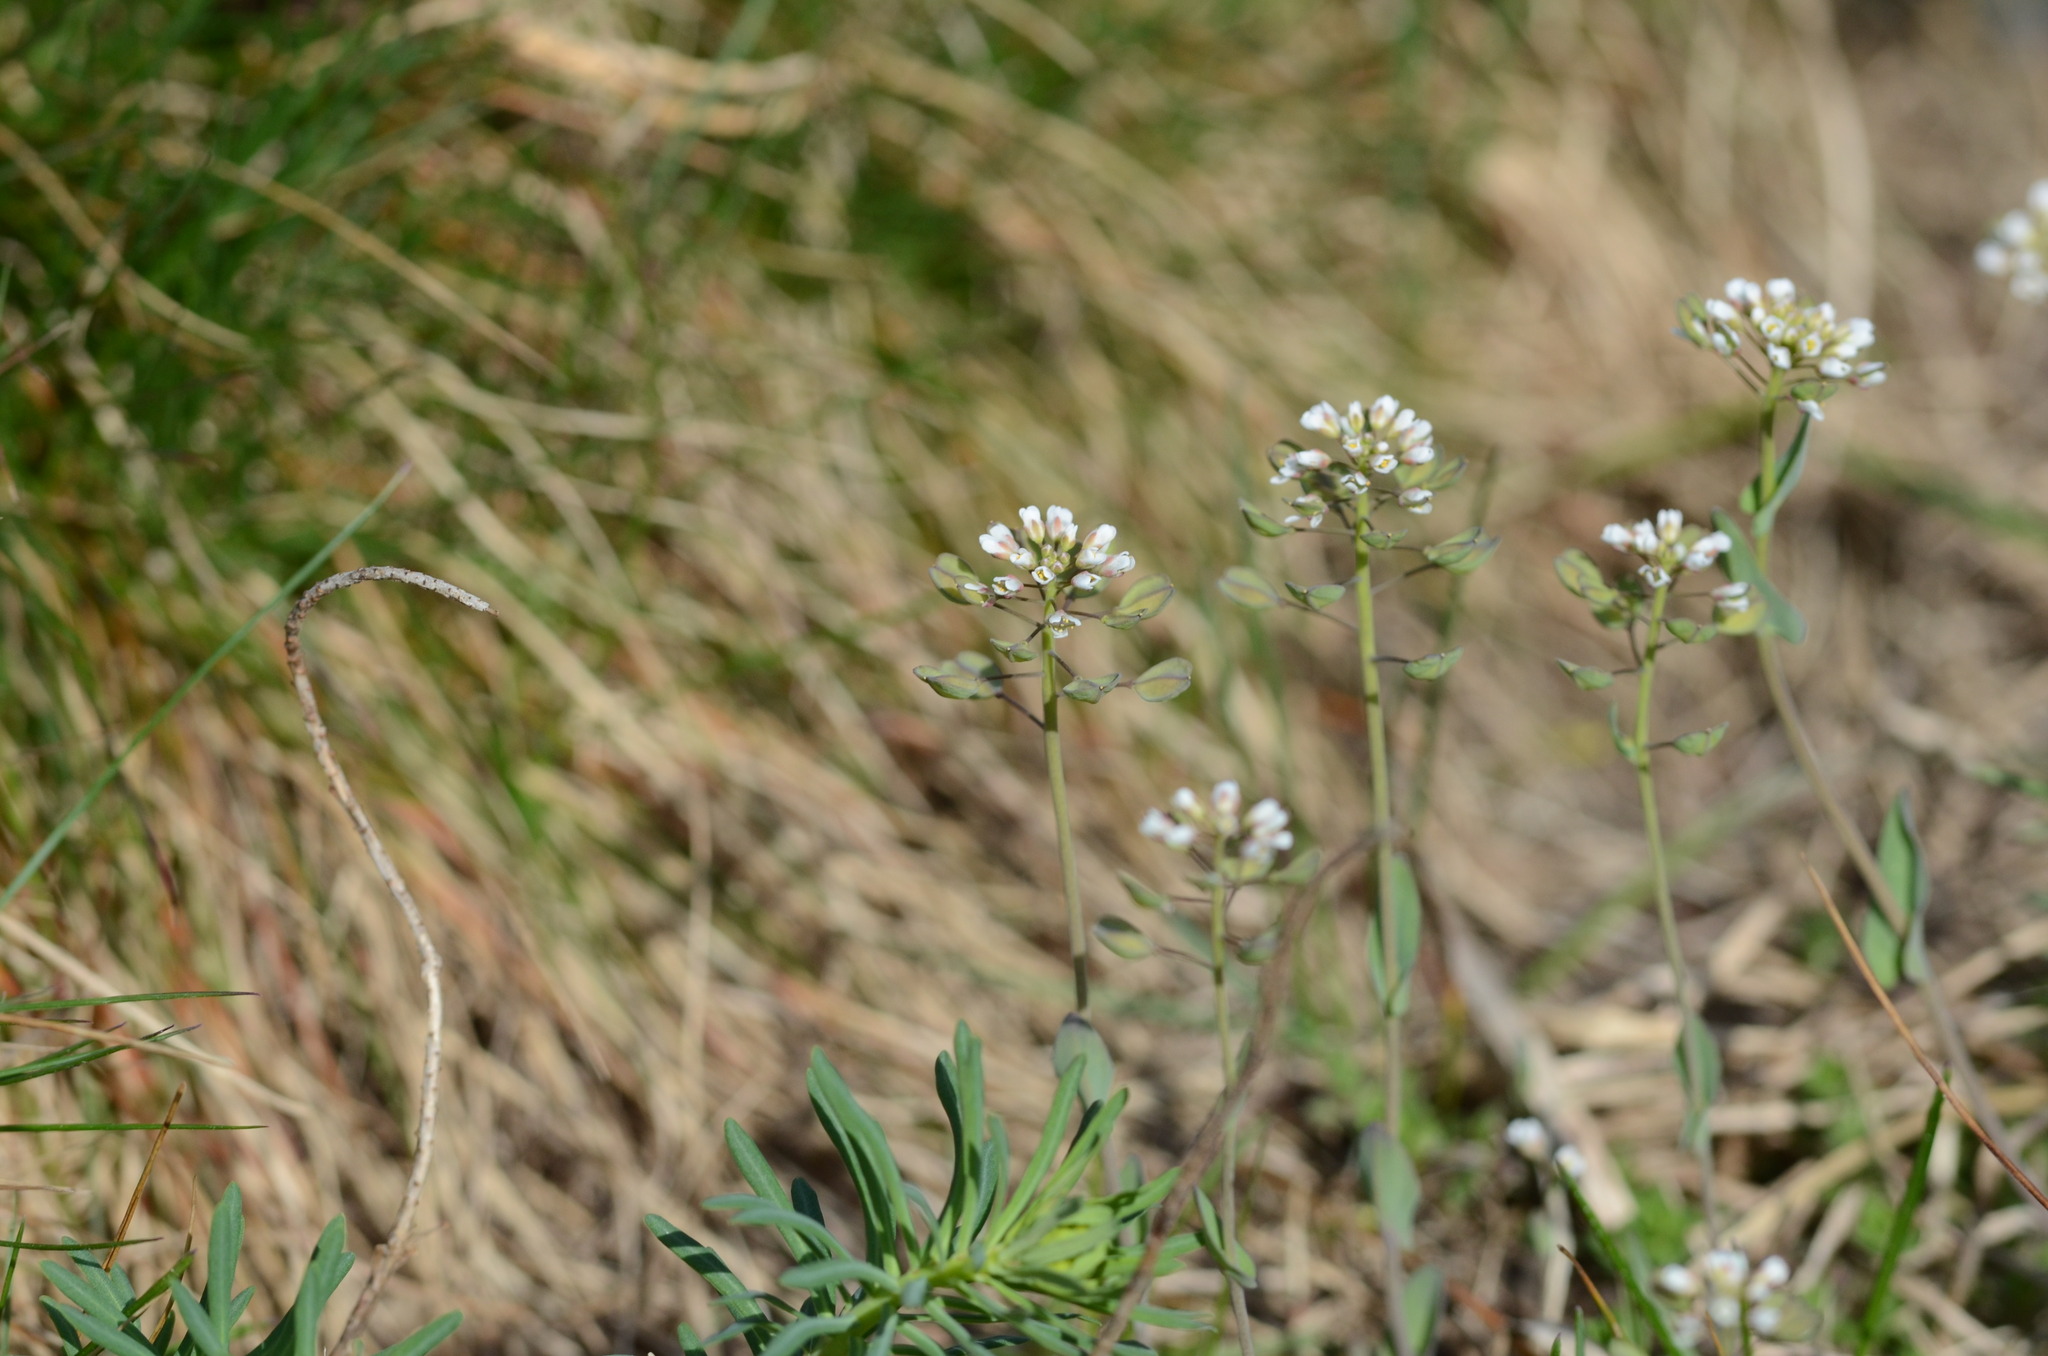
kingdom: Plantae
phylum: Tracheophyta
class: Magnoliopsida
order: Brassicales
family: Brassicaceae
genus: Noccaea
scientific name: Noccaea perfoliata
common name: Perfoliate pennycress
